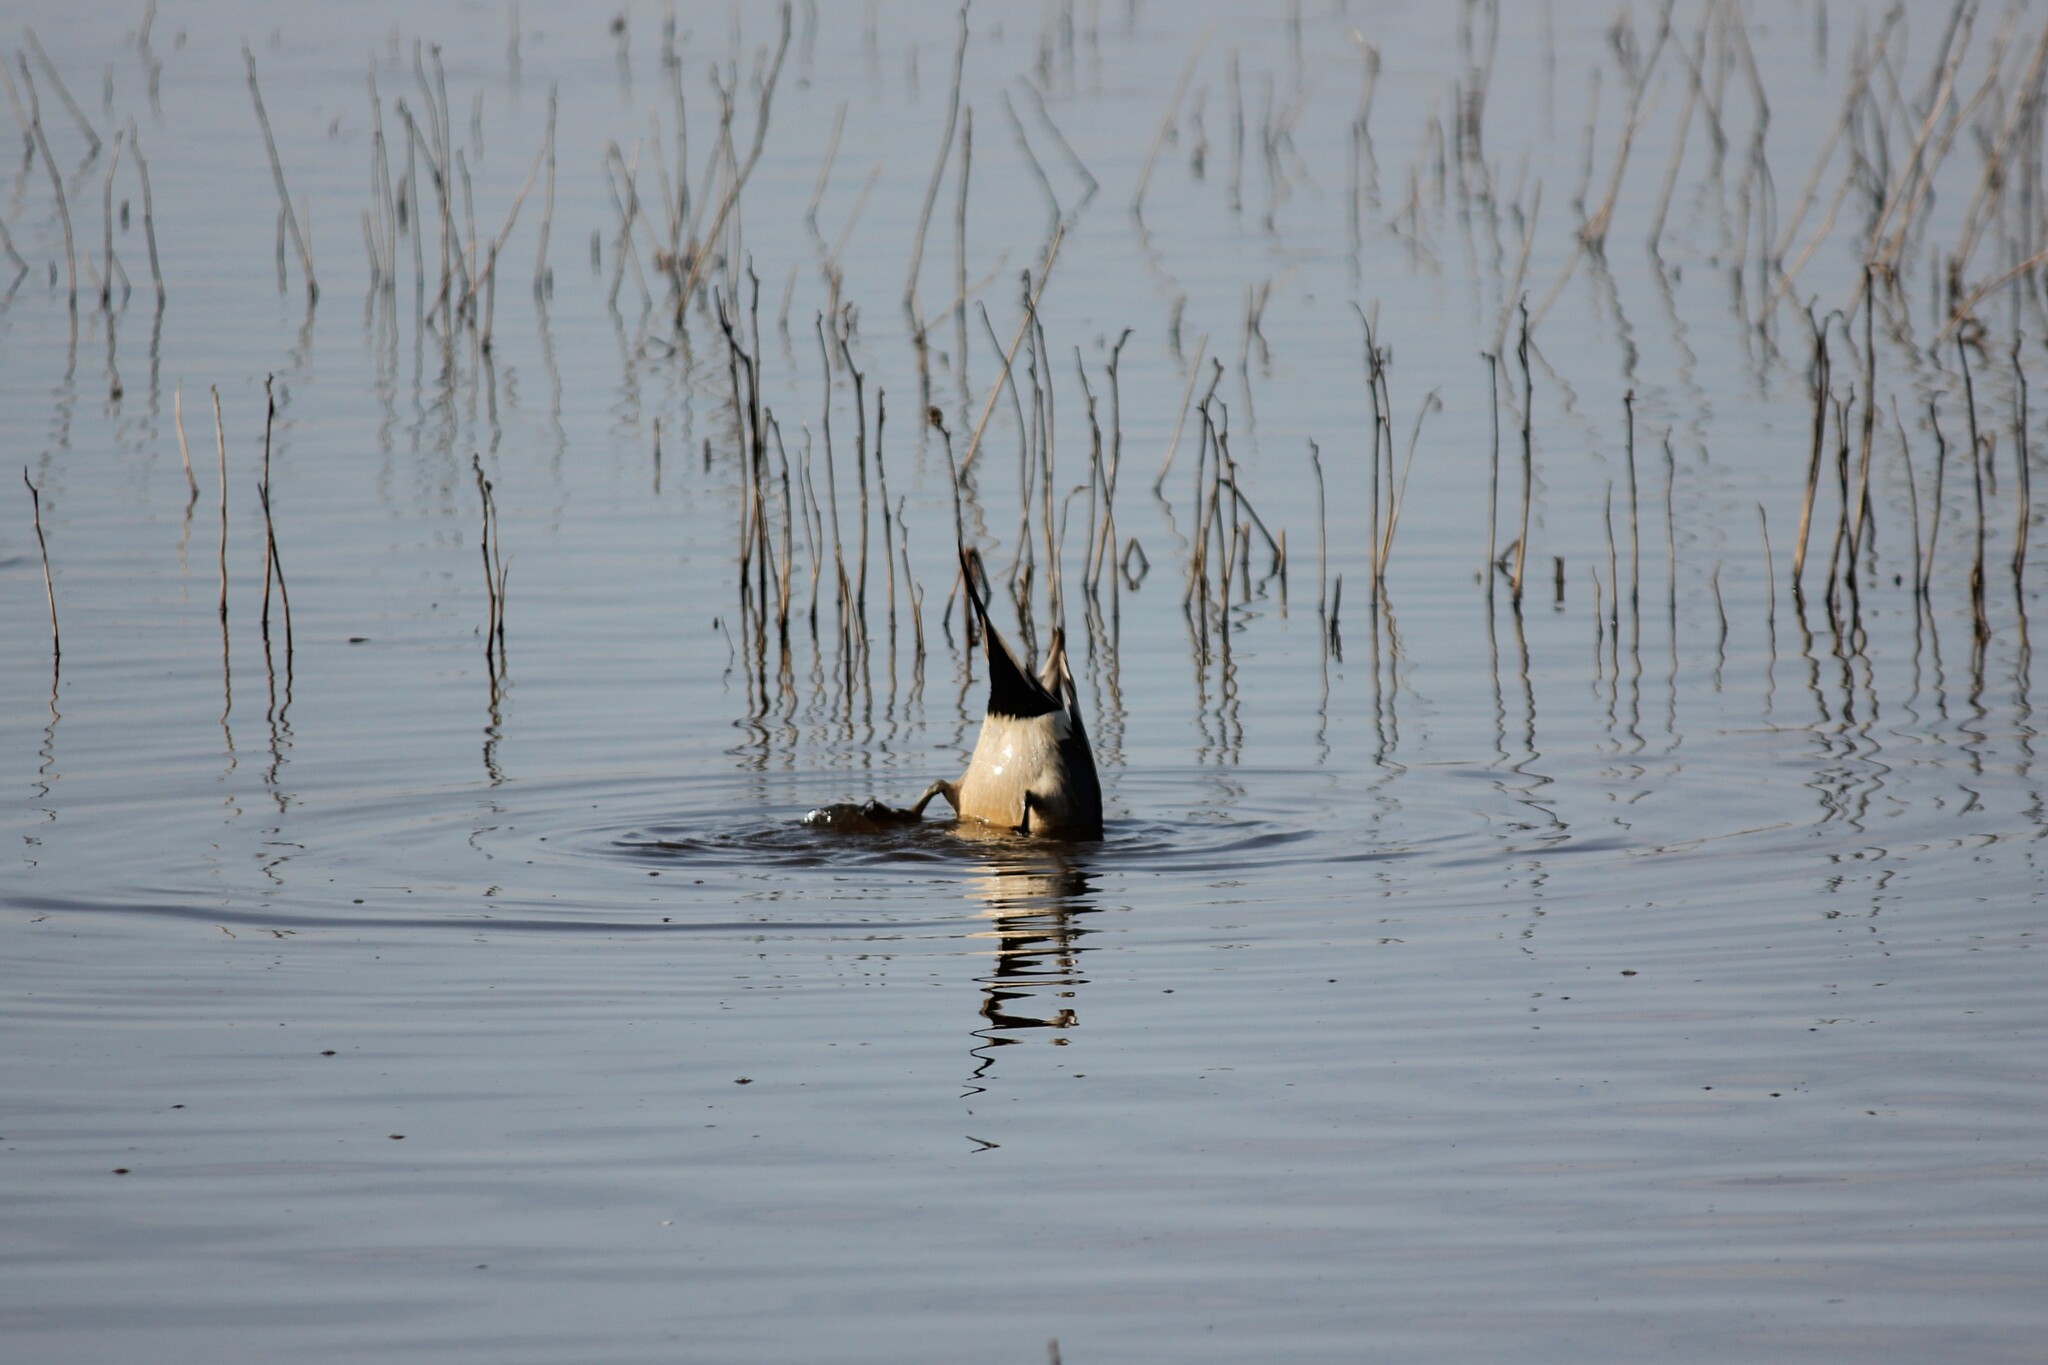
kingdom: Animalia
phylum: Chordata
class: Aves
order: Anseriformes
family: Anatidae
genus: Anas
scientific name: Anas acuta
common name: Northern pintail
